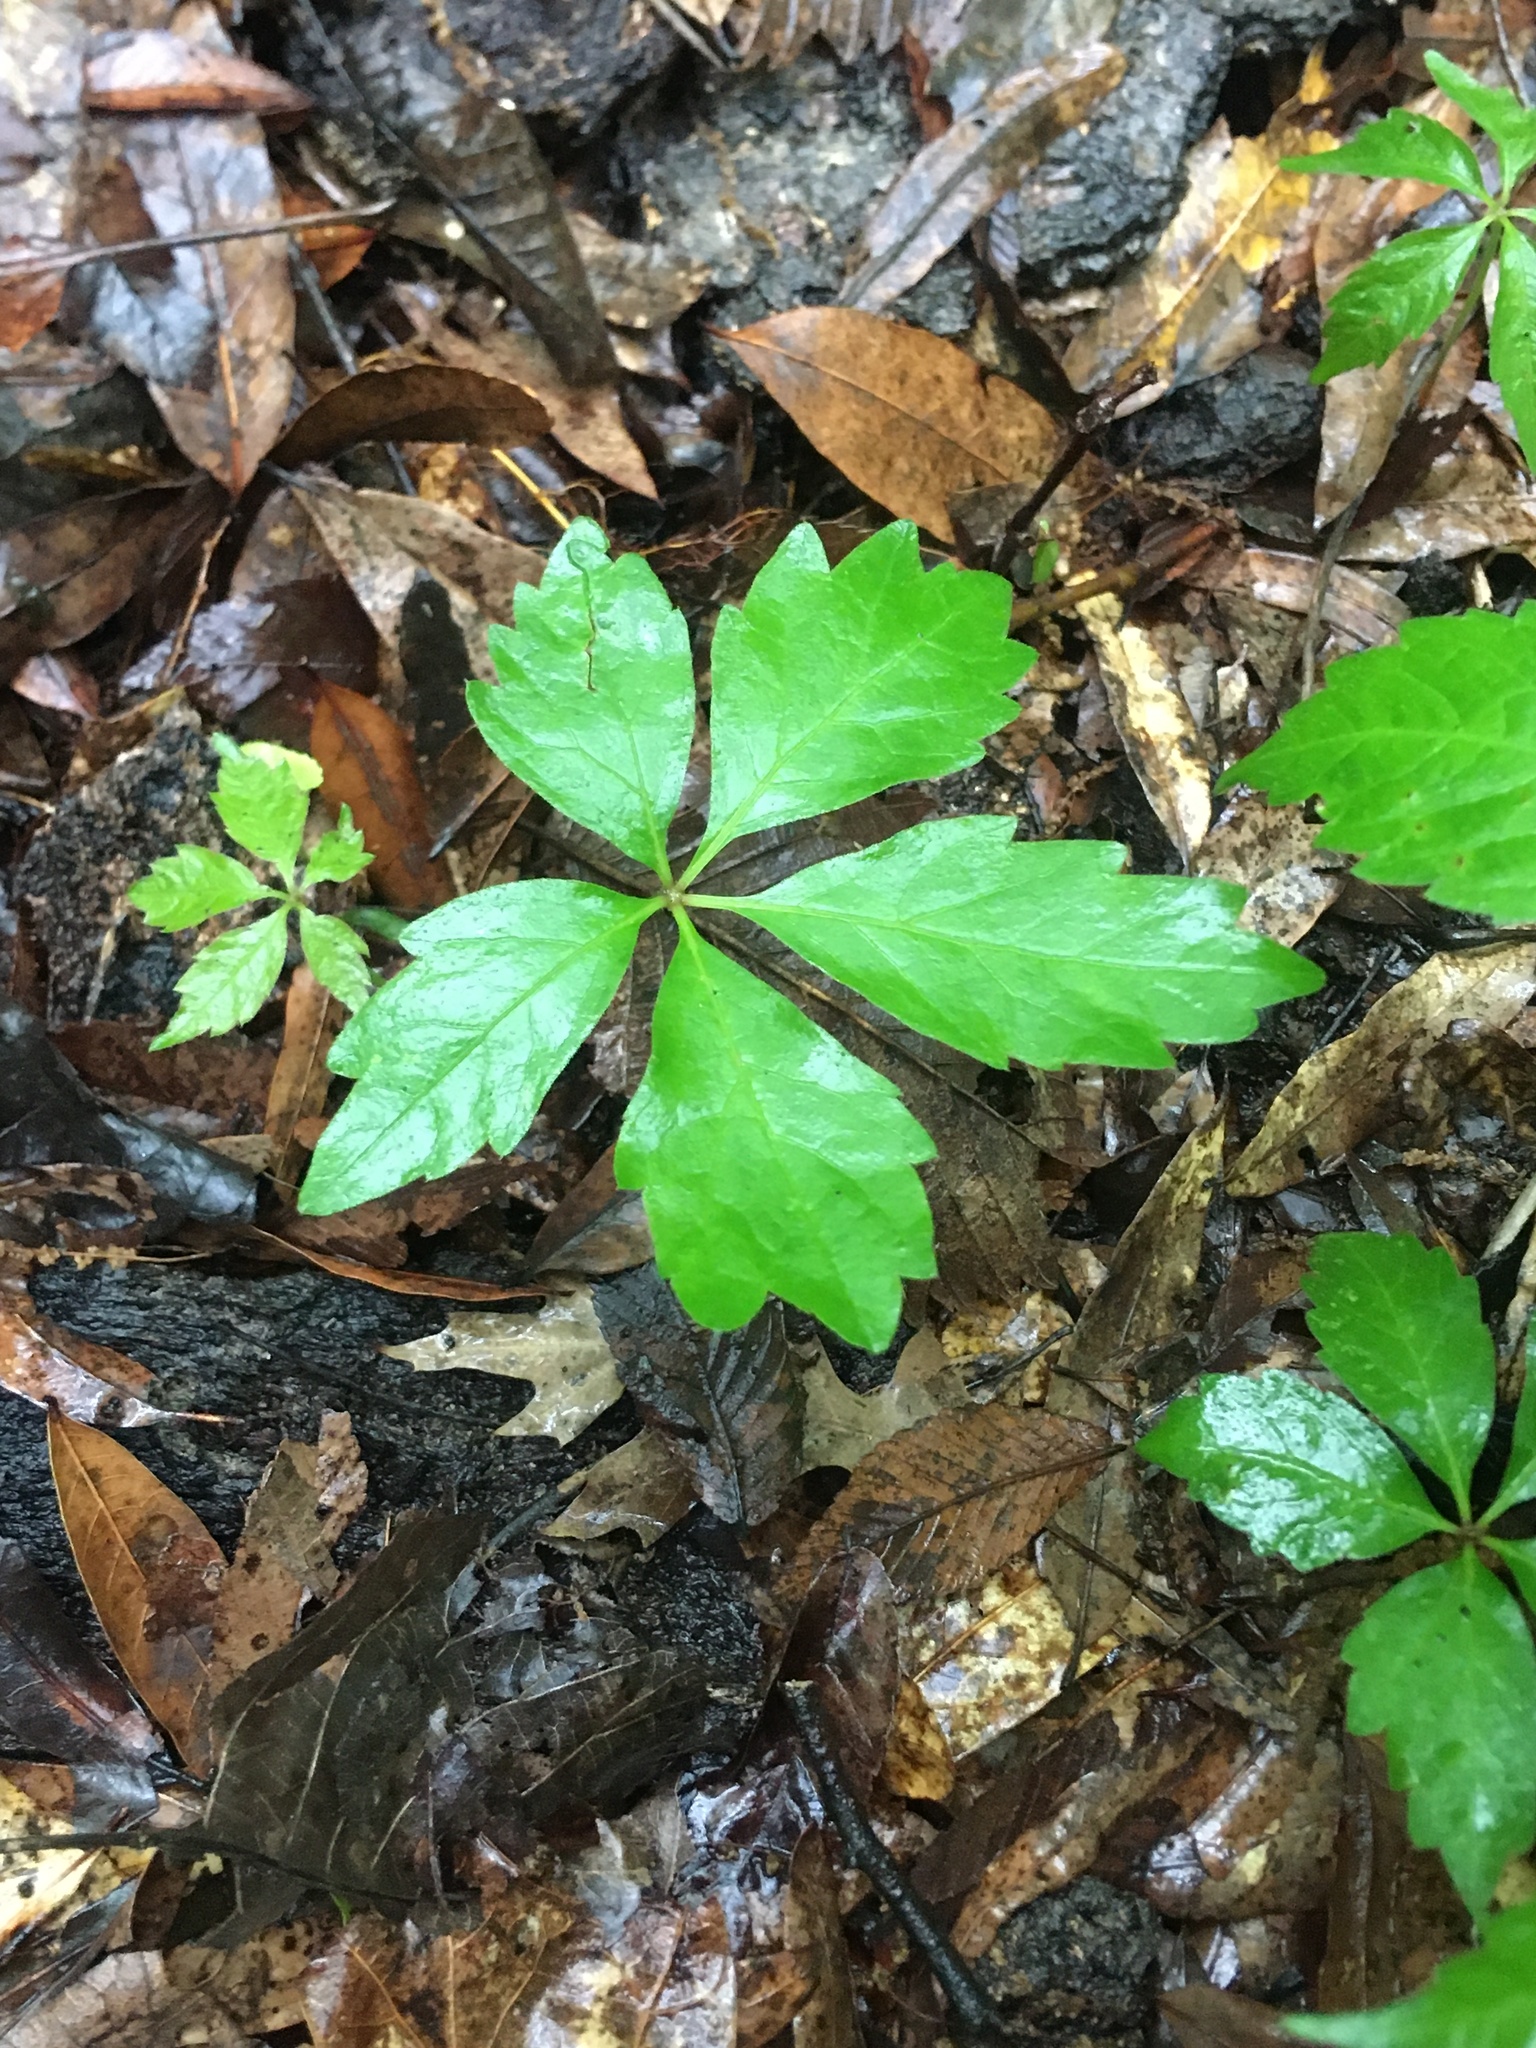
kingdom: Plantae
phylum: Tracheophyta
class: Magnoliopsida
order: Vitales
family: Vitaceae
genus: Parthenocissus
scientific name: Parthenocissus quinquefolia
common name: Virginia-creeper
